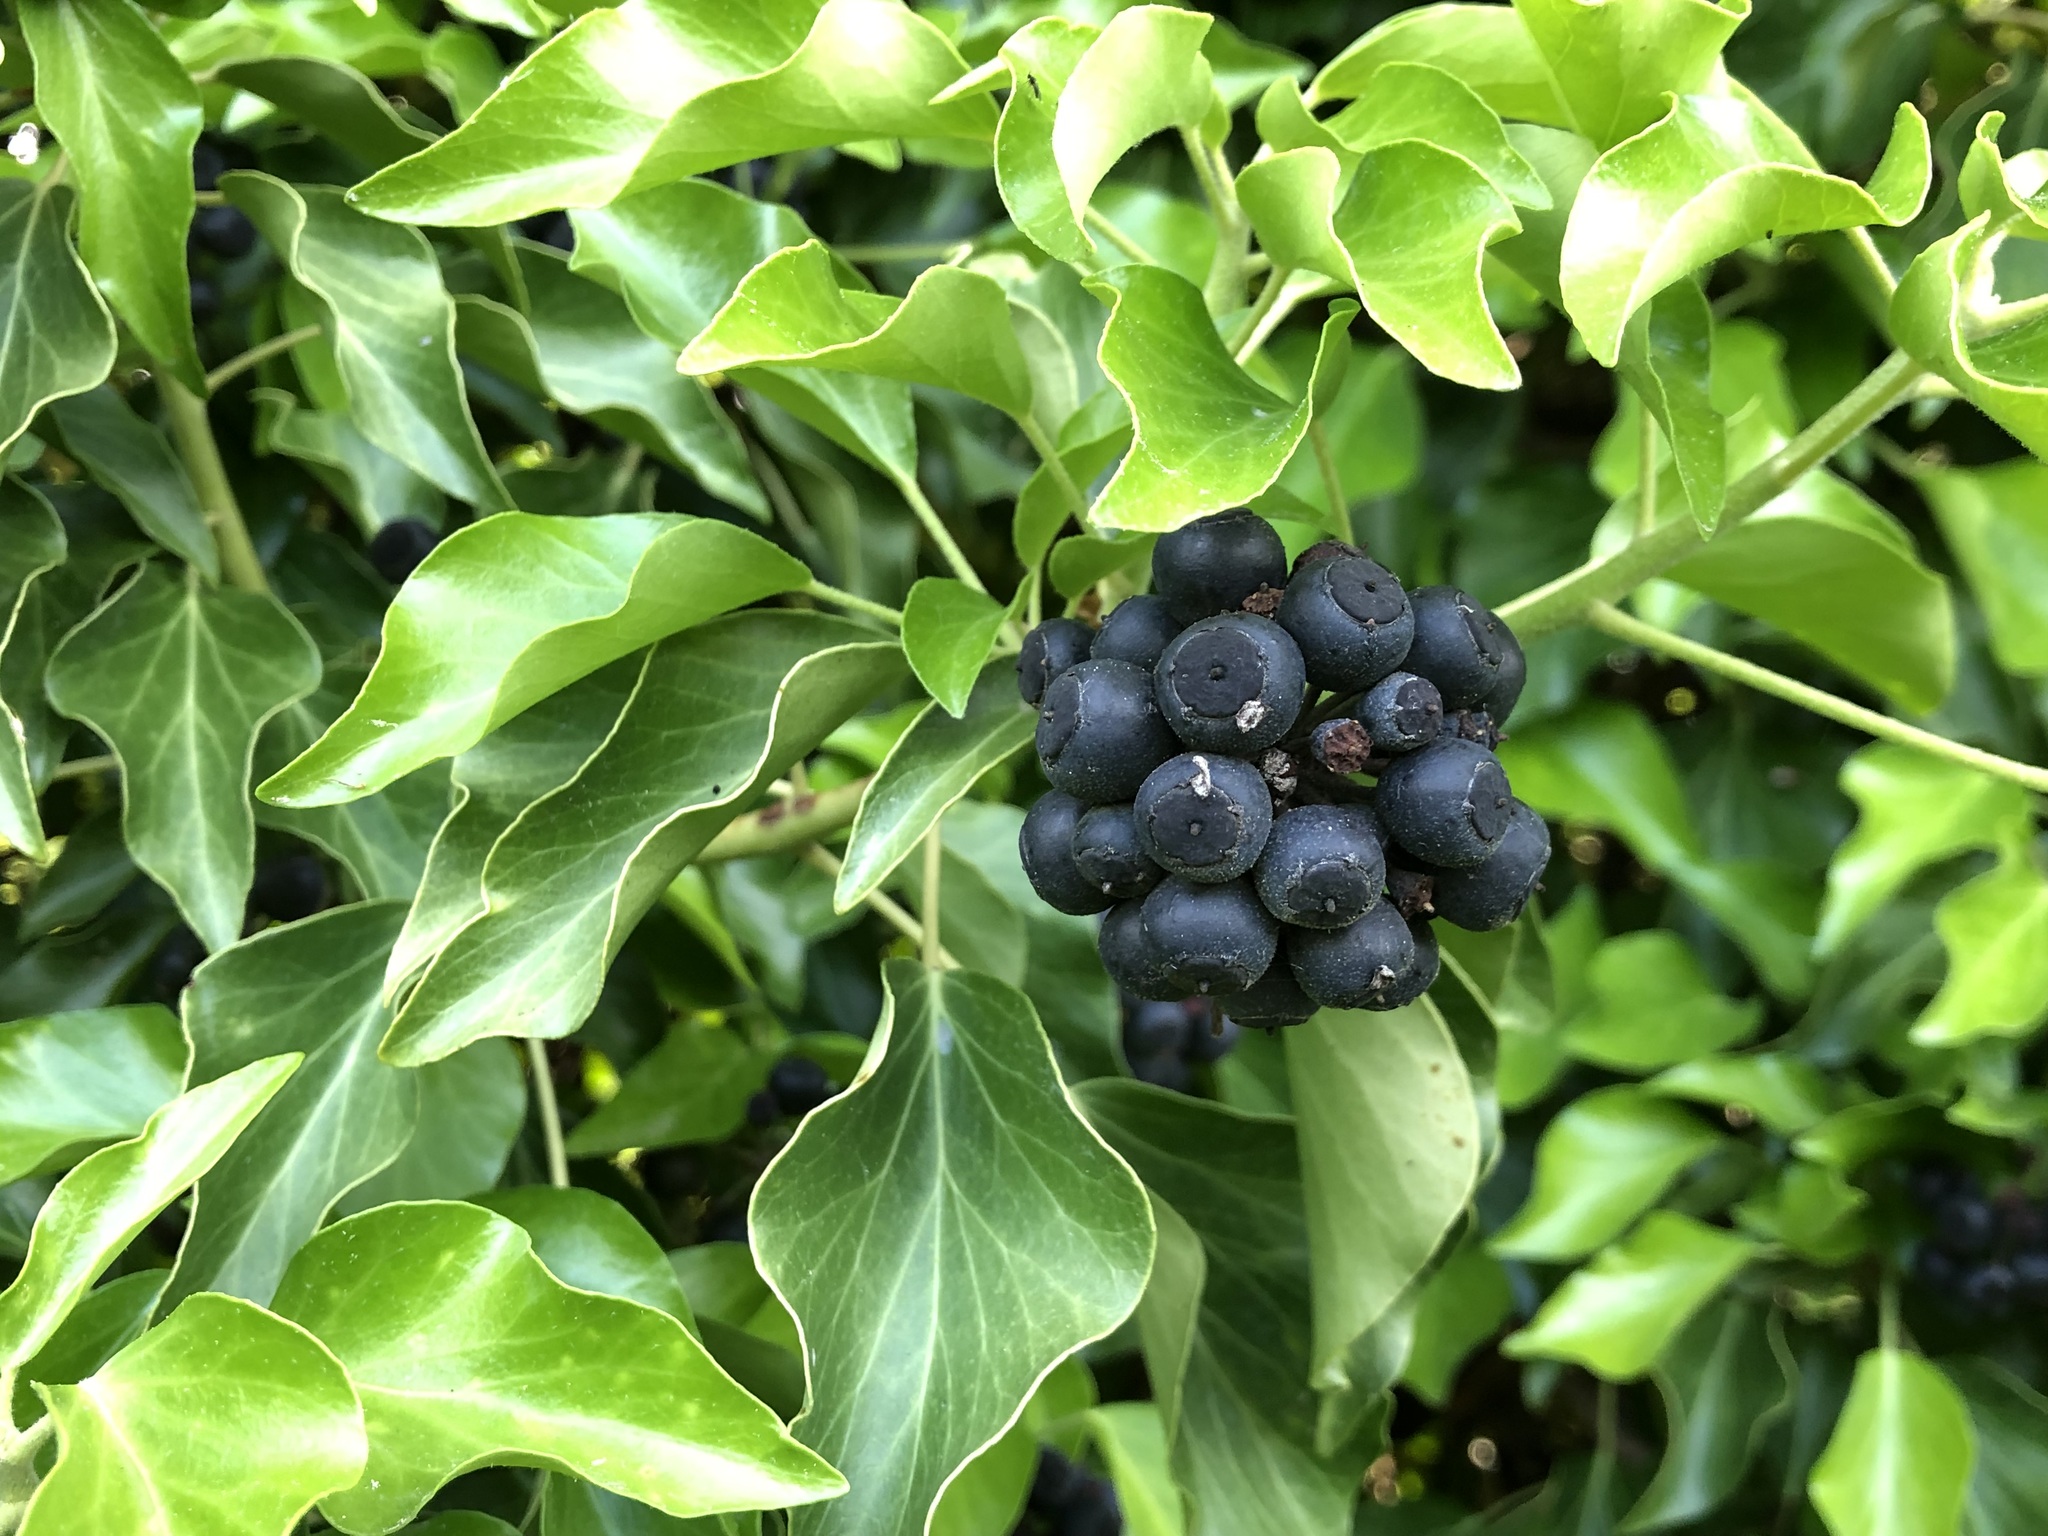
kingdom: Plantae
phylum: Tracheophyta
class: Magnoliopsida
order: Apiales
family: Araliaceae
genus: Hedera
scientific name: Hedera helix
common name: Ivy
